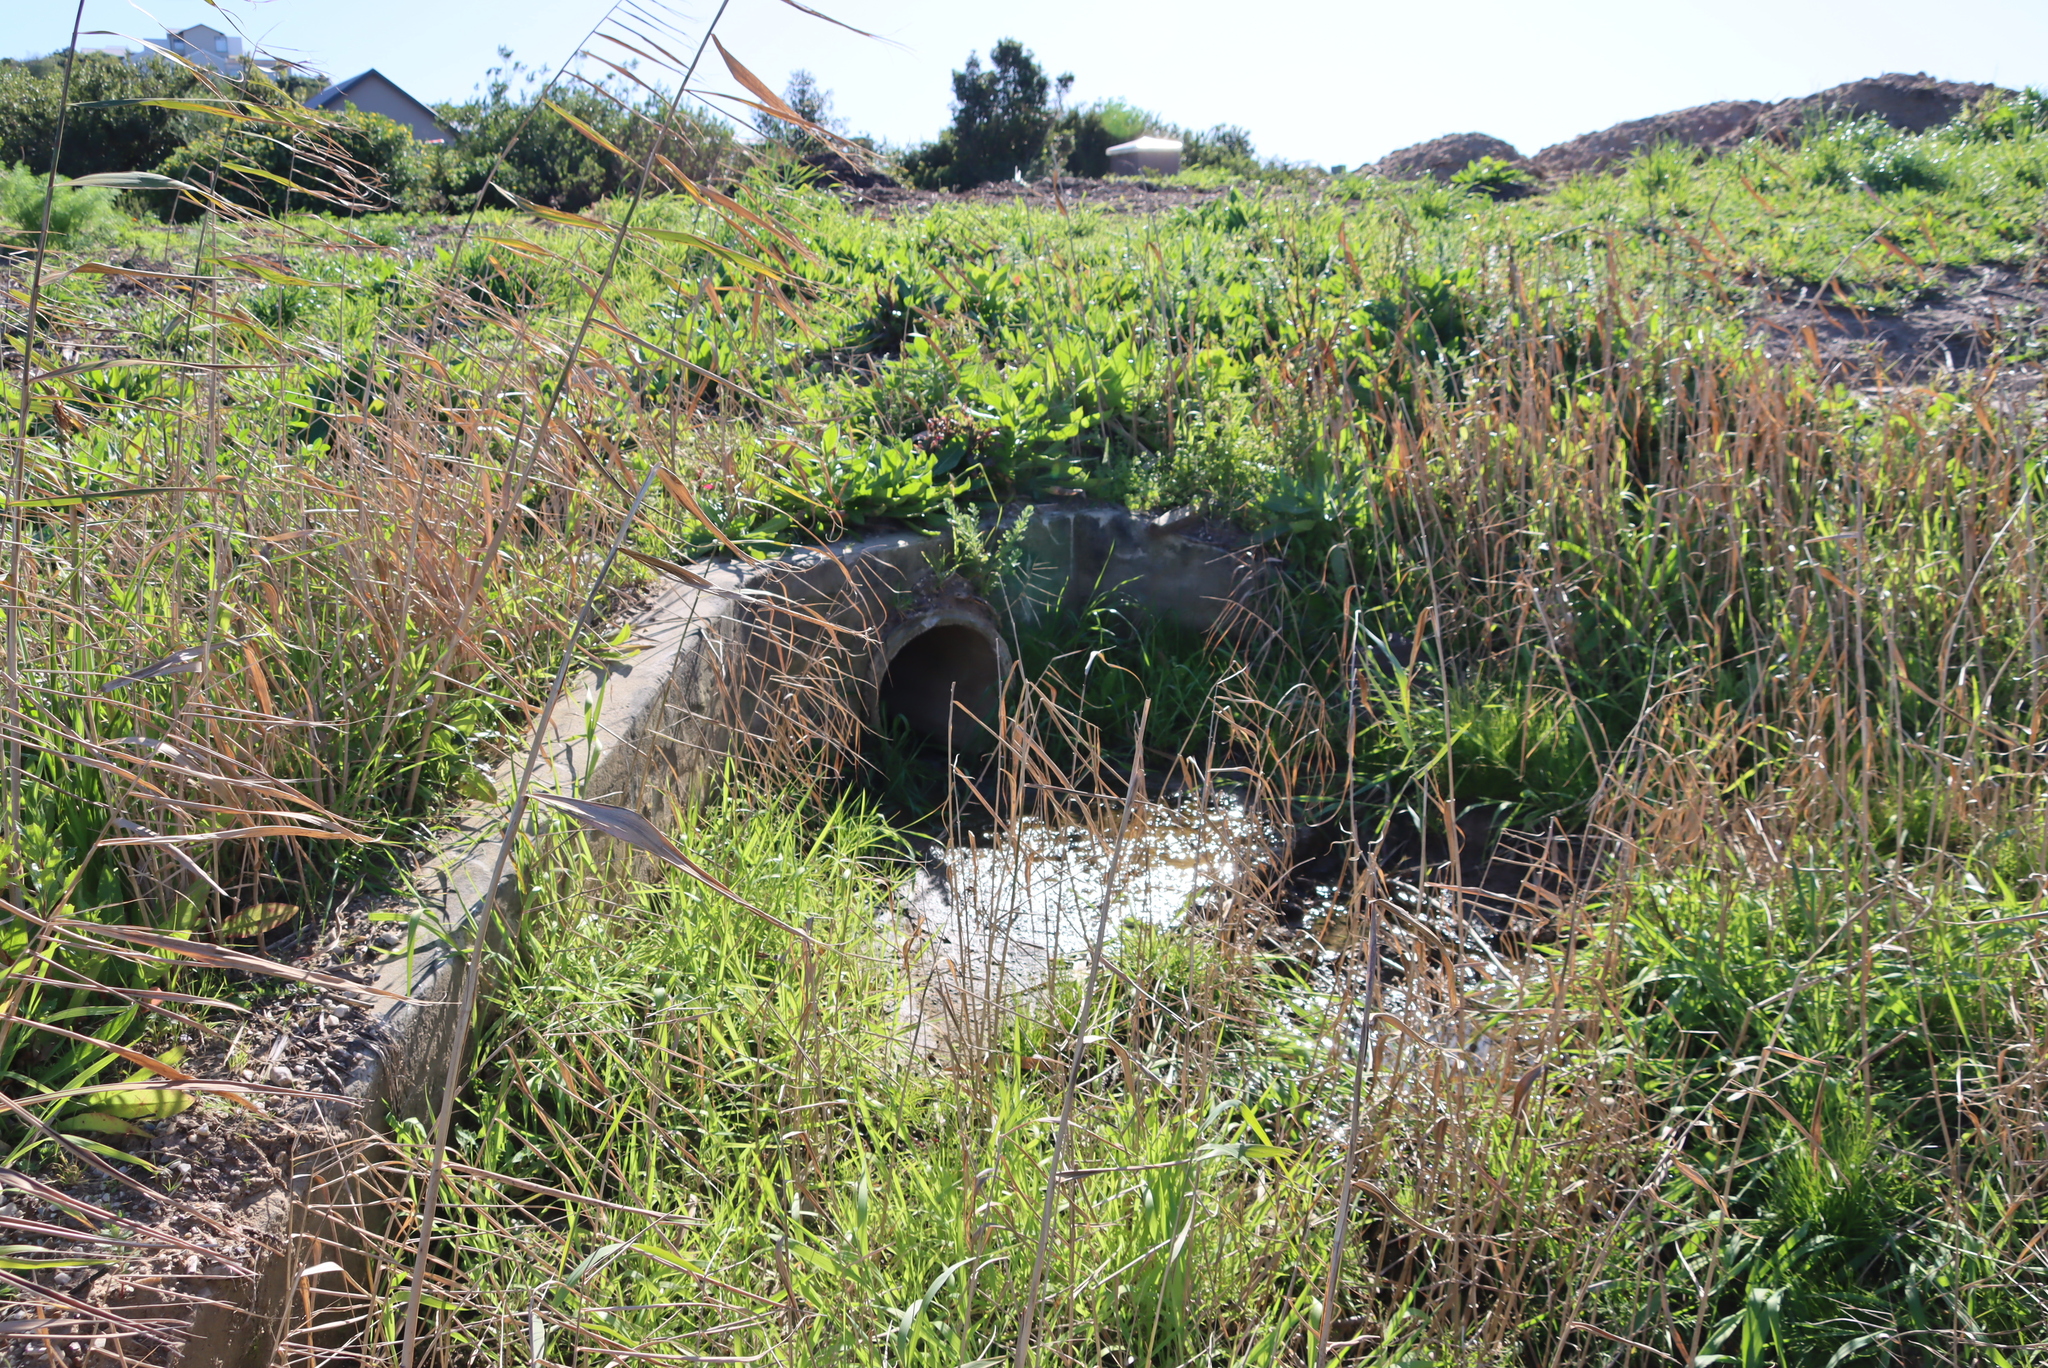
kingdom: Plantae
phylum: Tracheophyta
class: Liliopsida
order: Poales
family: Poaceae
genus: Phragmites
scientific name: Phragmites australis
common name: Common reed
